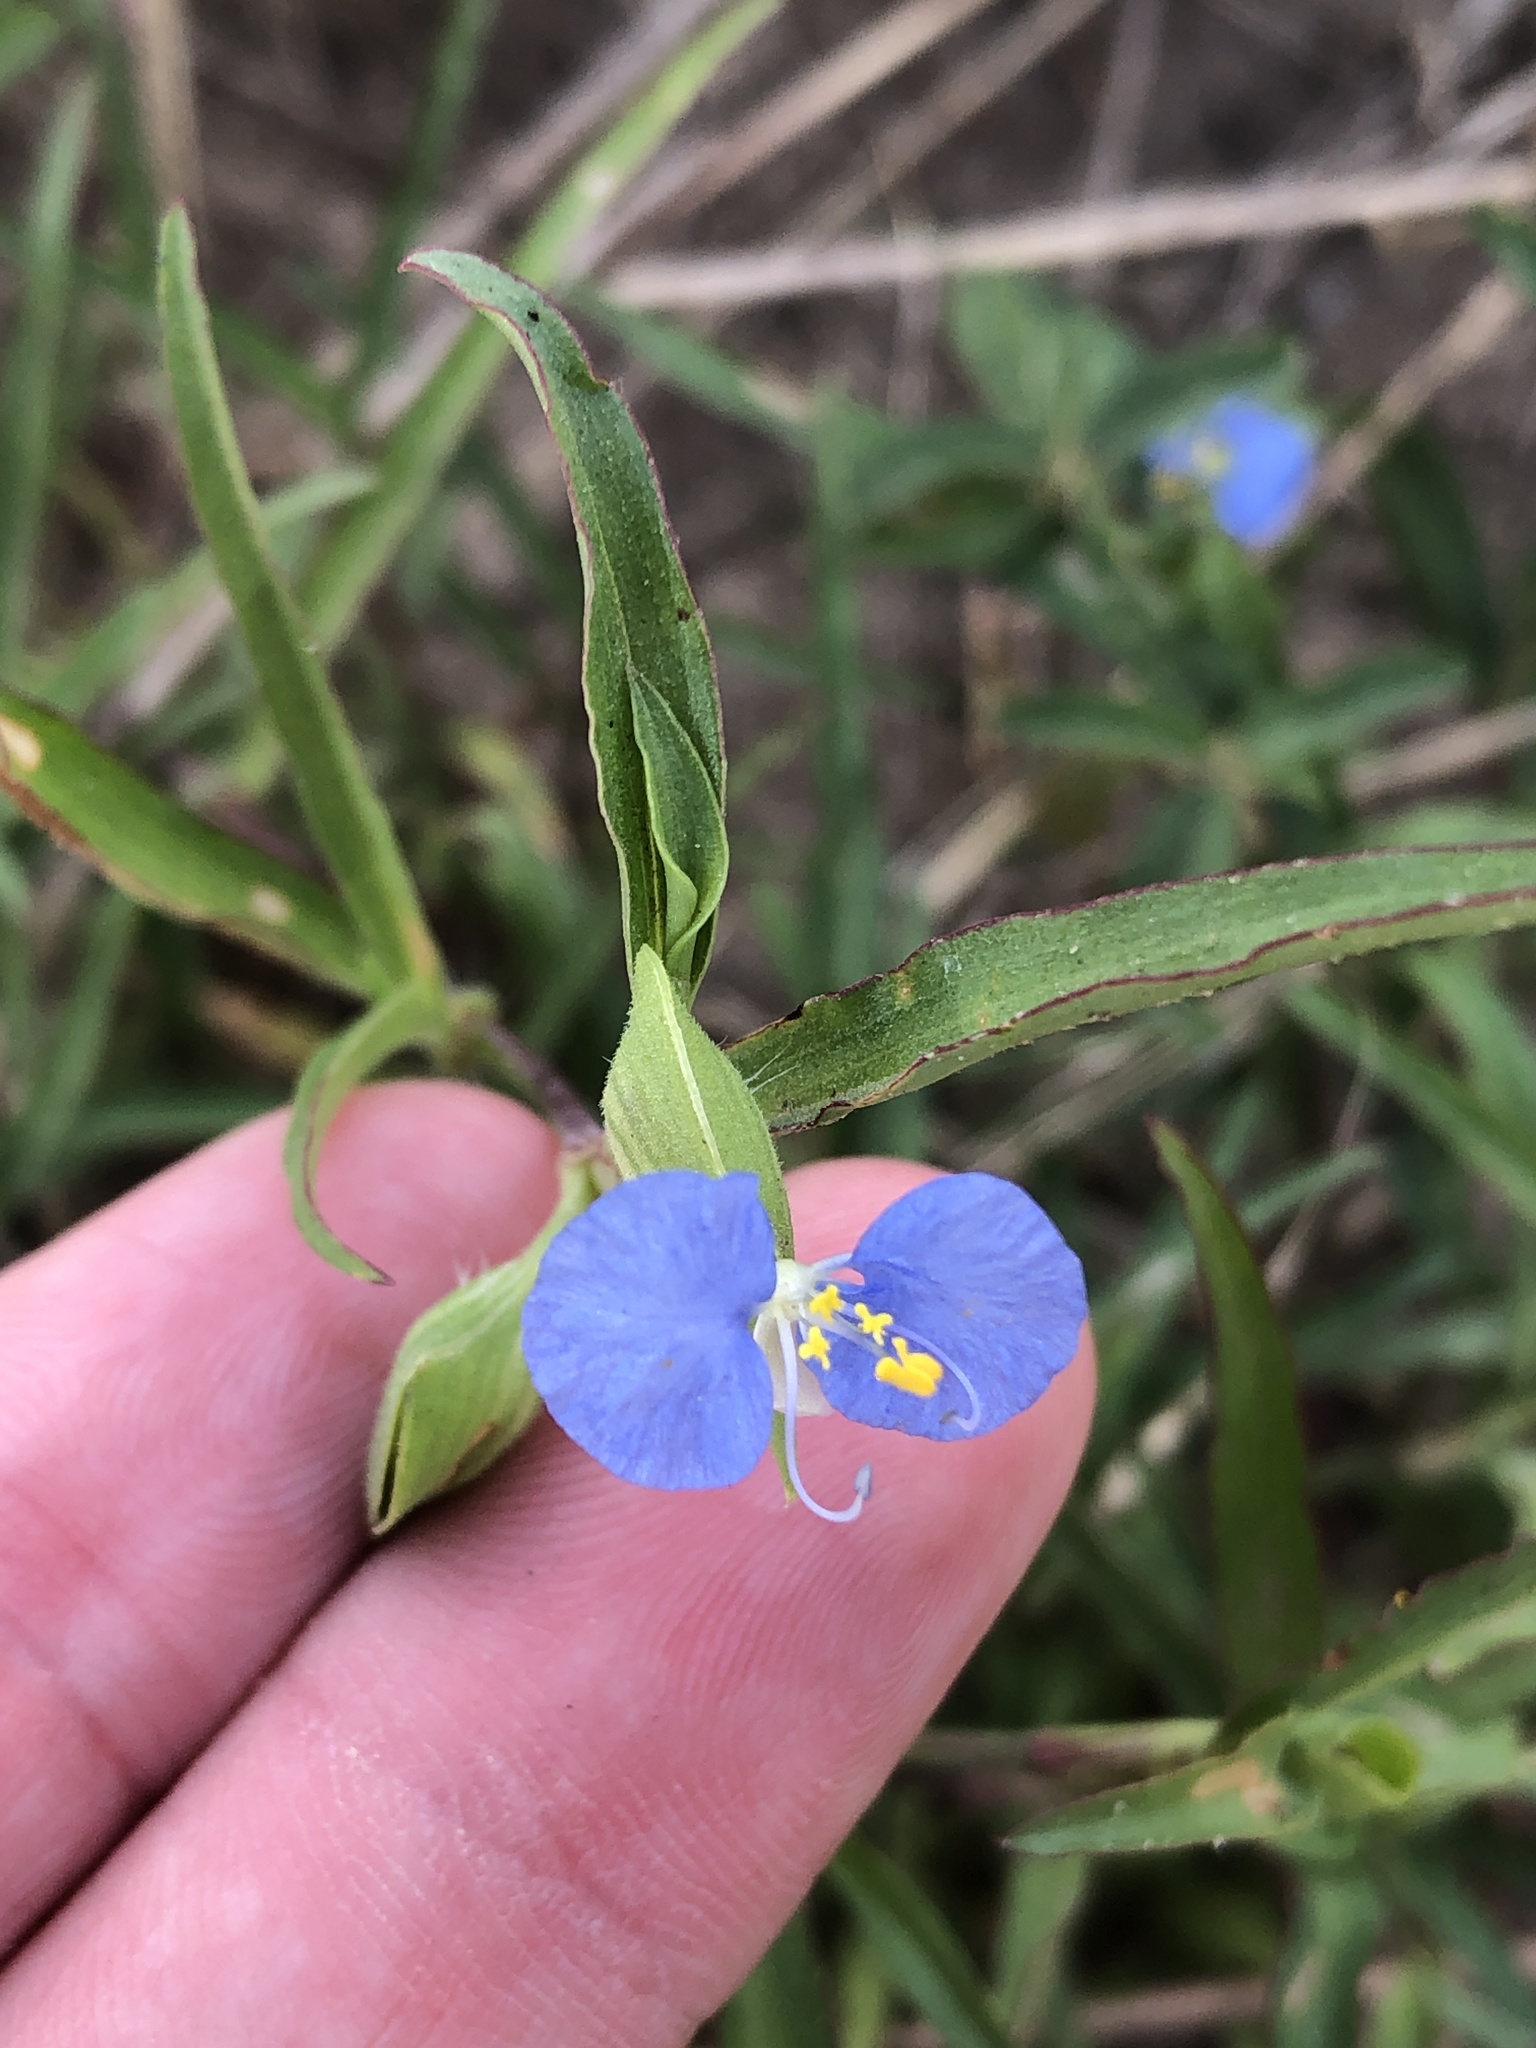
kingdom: Plantae
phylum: Tracheophyta
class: Liliopsida
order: Commelinales
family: Commelinaceae
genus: Commelina
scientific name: Commelina erecta
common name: Blousel blommetjie
